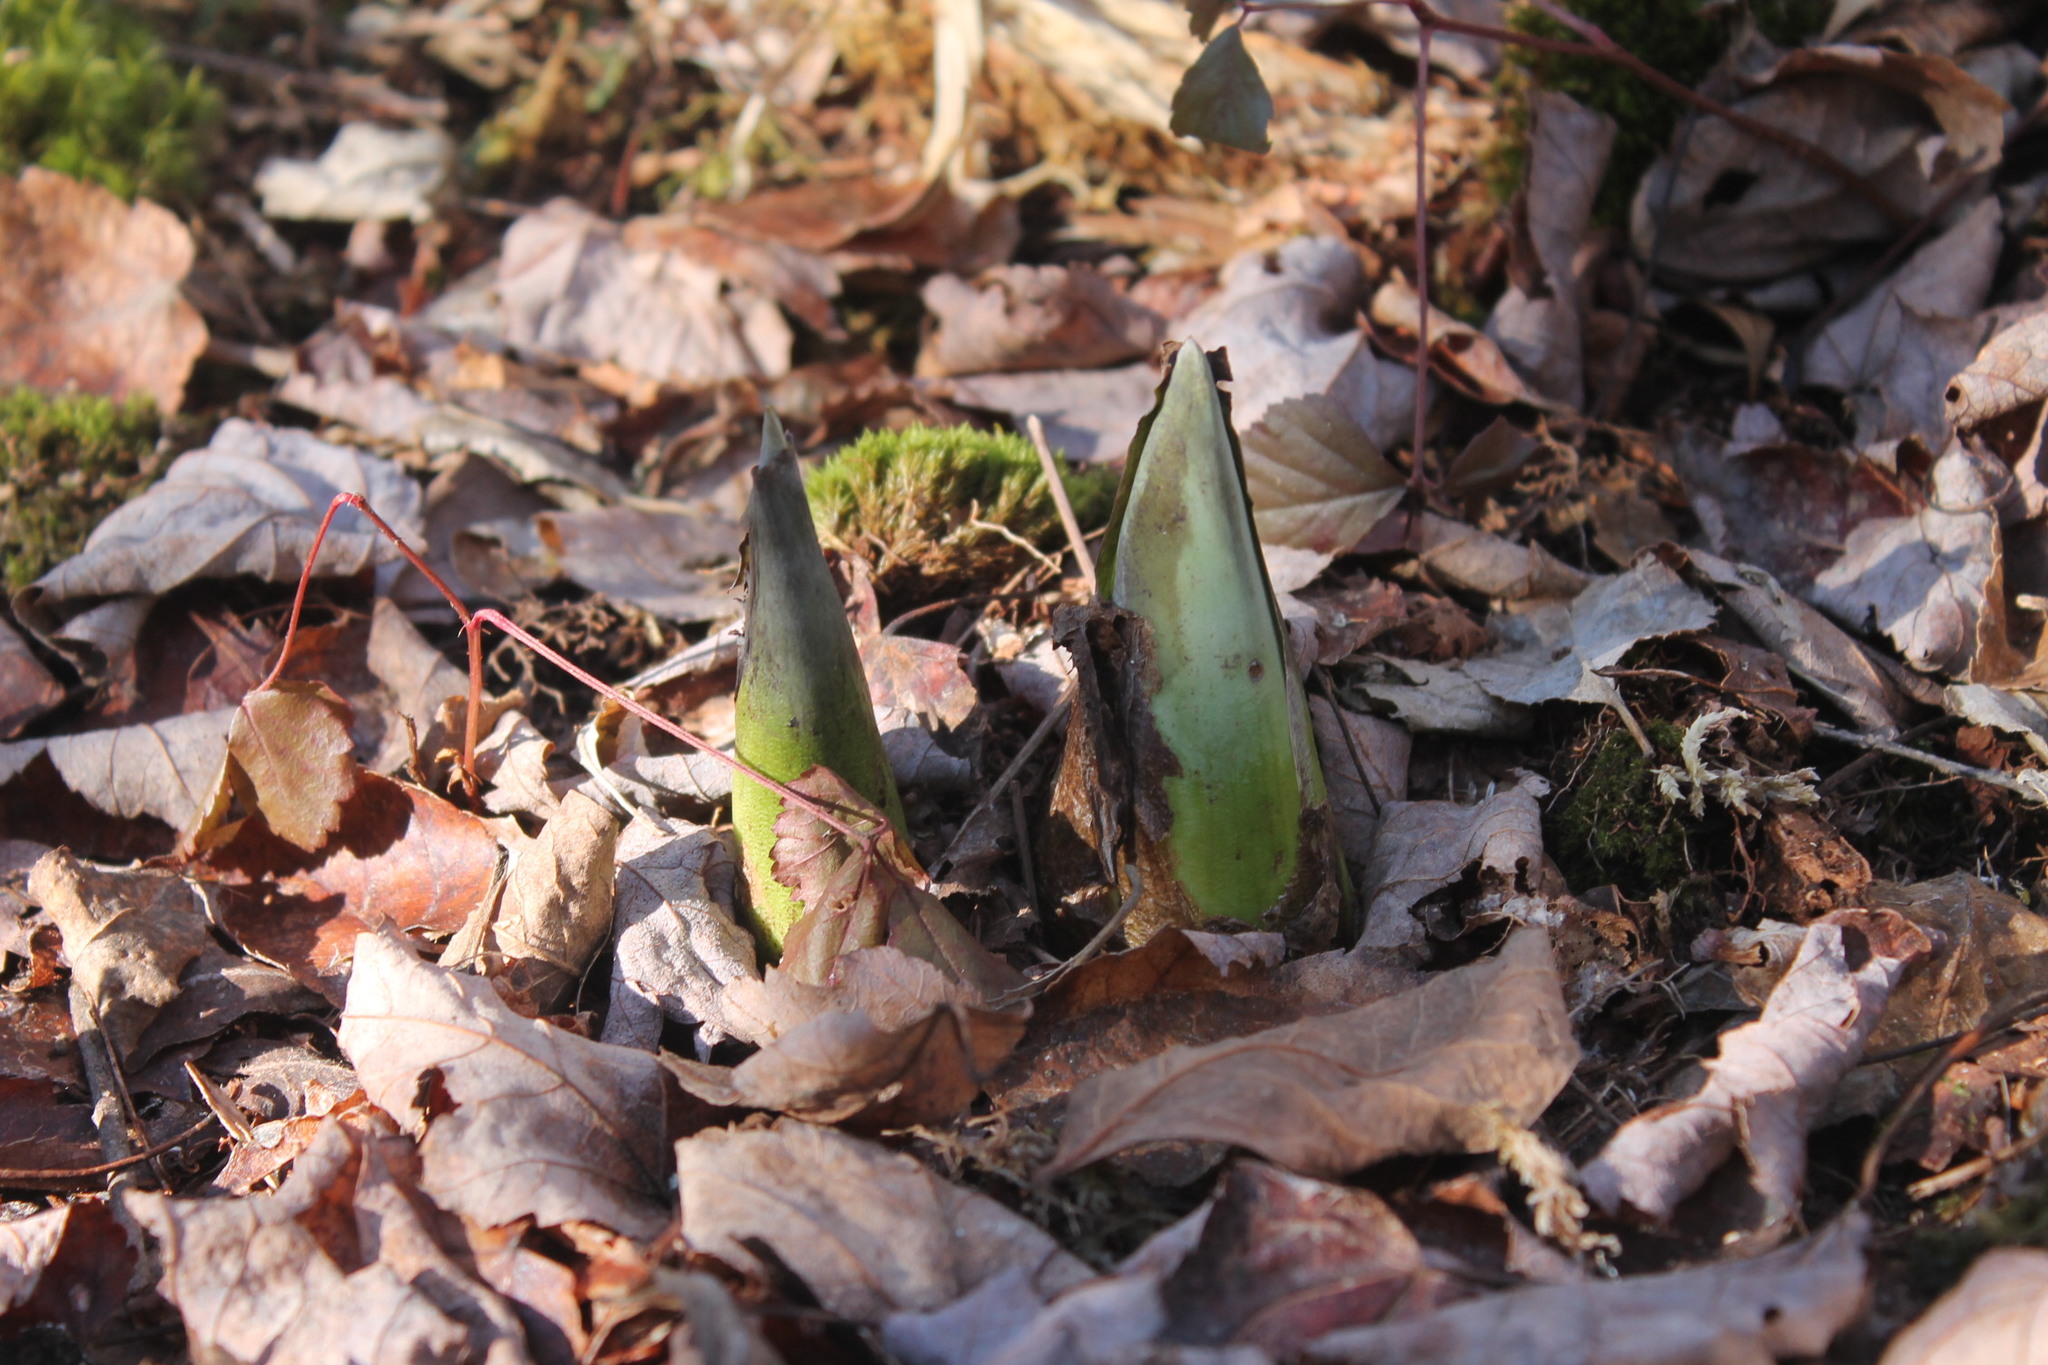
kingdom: Plantae
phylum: Tracheophyta
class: Liliopsida
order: Alismatales
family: Araceae
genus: Symplocarpus
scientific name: Symplocarpus foetidus
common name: Eastern skunk cabbage
